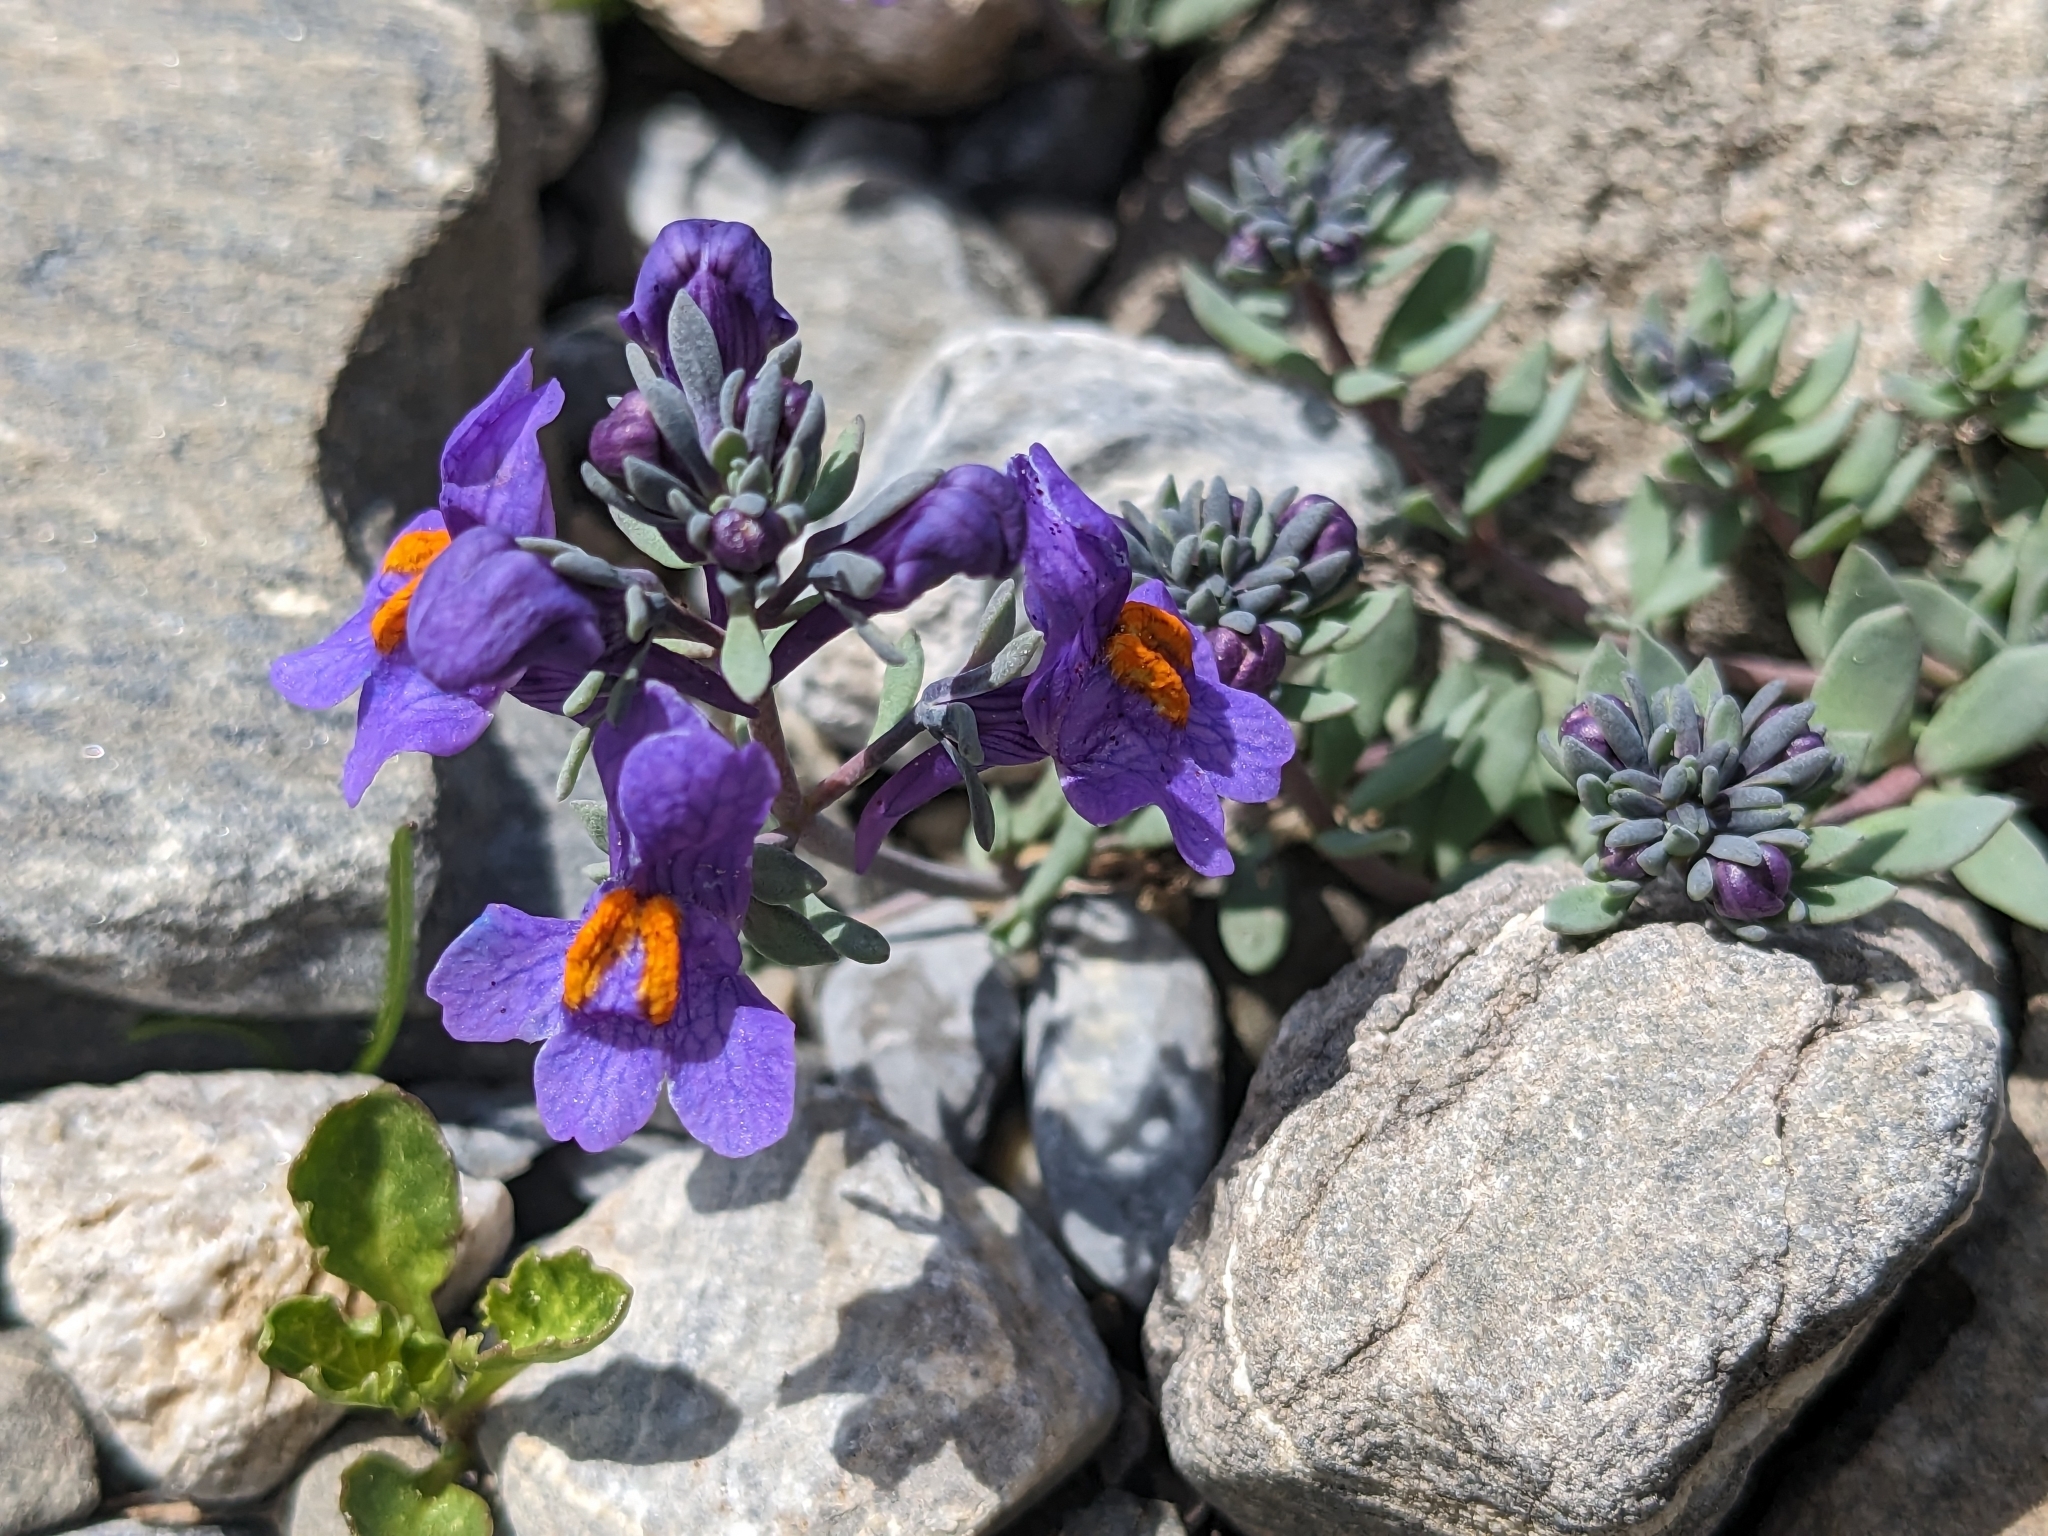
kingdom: Plantae
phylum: Tracheophyta
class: Magnoliopsida
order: Lamiales
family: Plantaginaceae
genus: Linaria
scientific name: Linaria alpina
